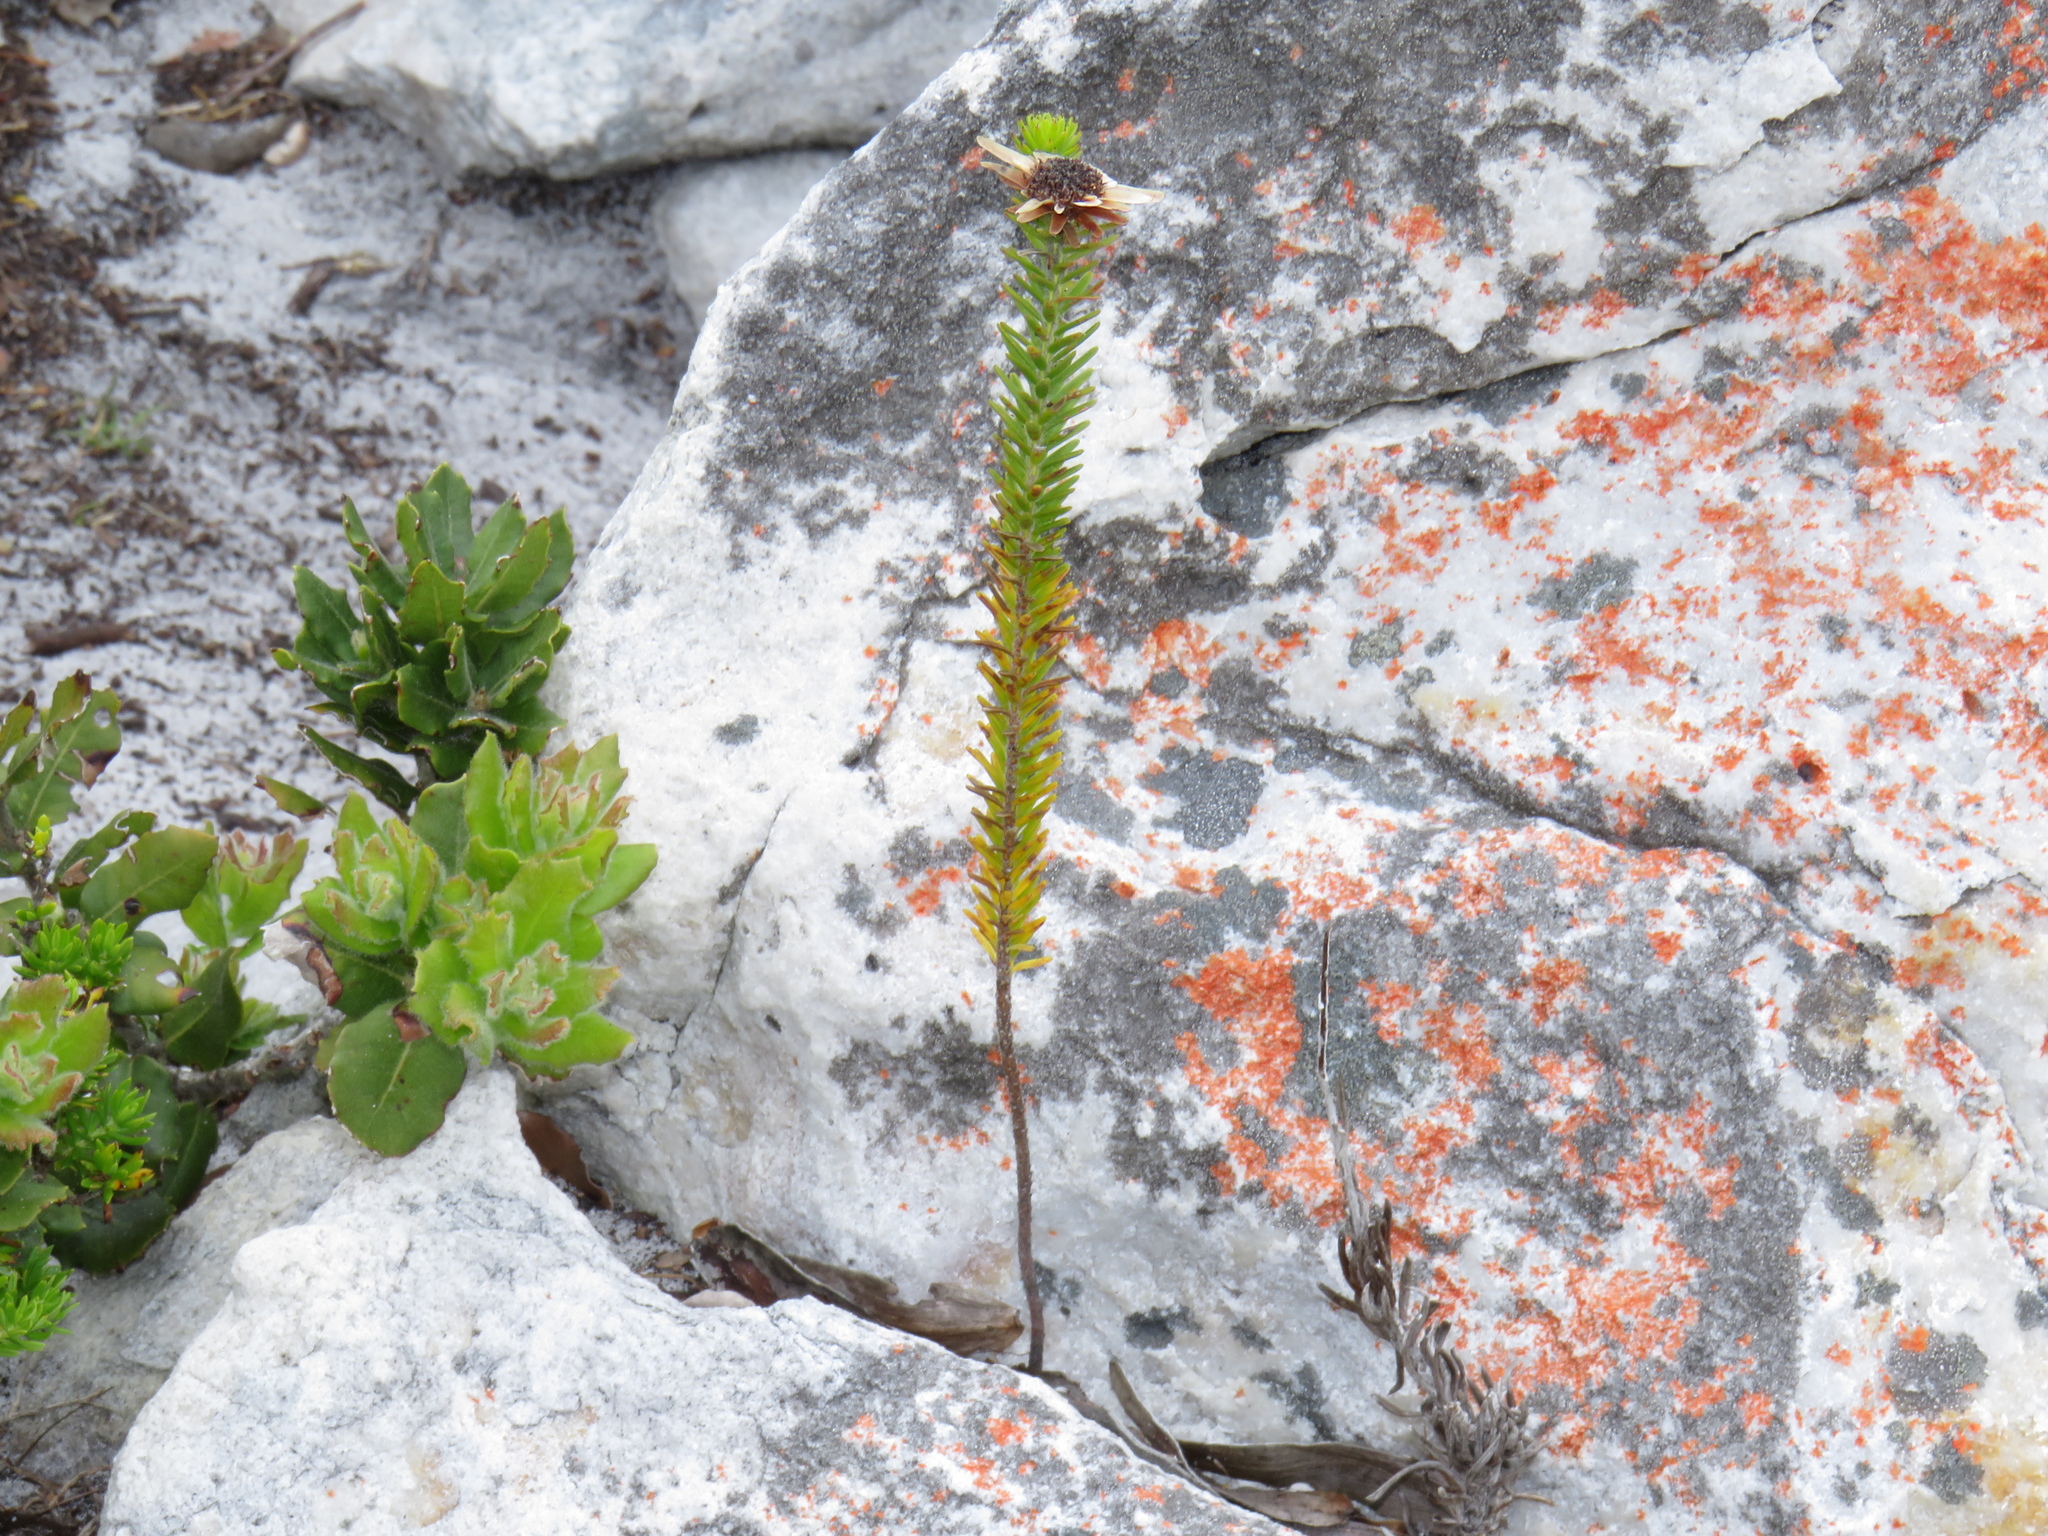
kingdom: Plantae
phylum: Tracheophyta
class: Magnoliopsida
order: Bruniales
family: Bruniaceae
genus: Staavia
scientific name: Staavia dodii
